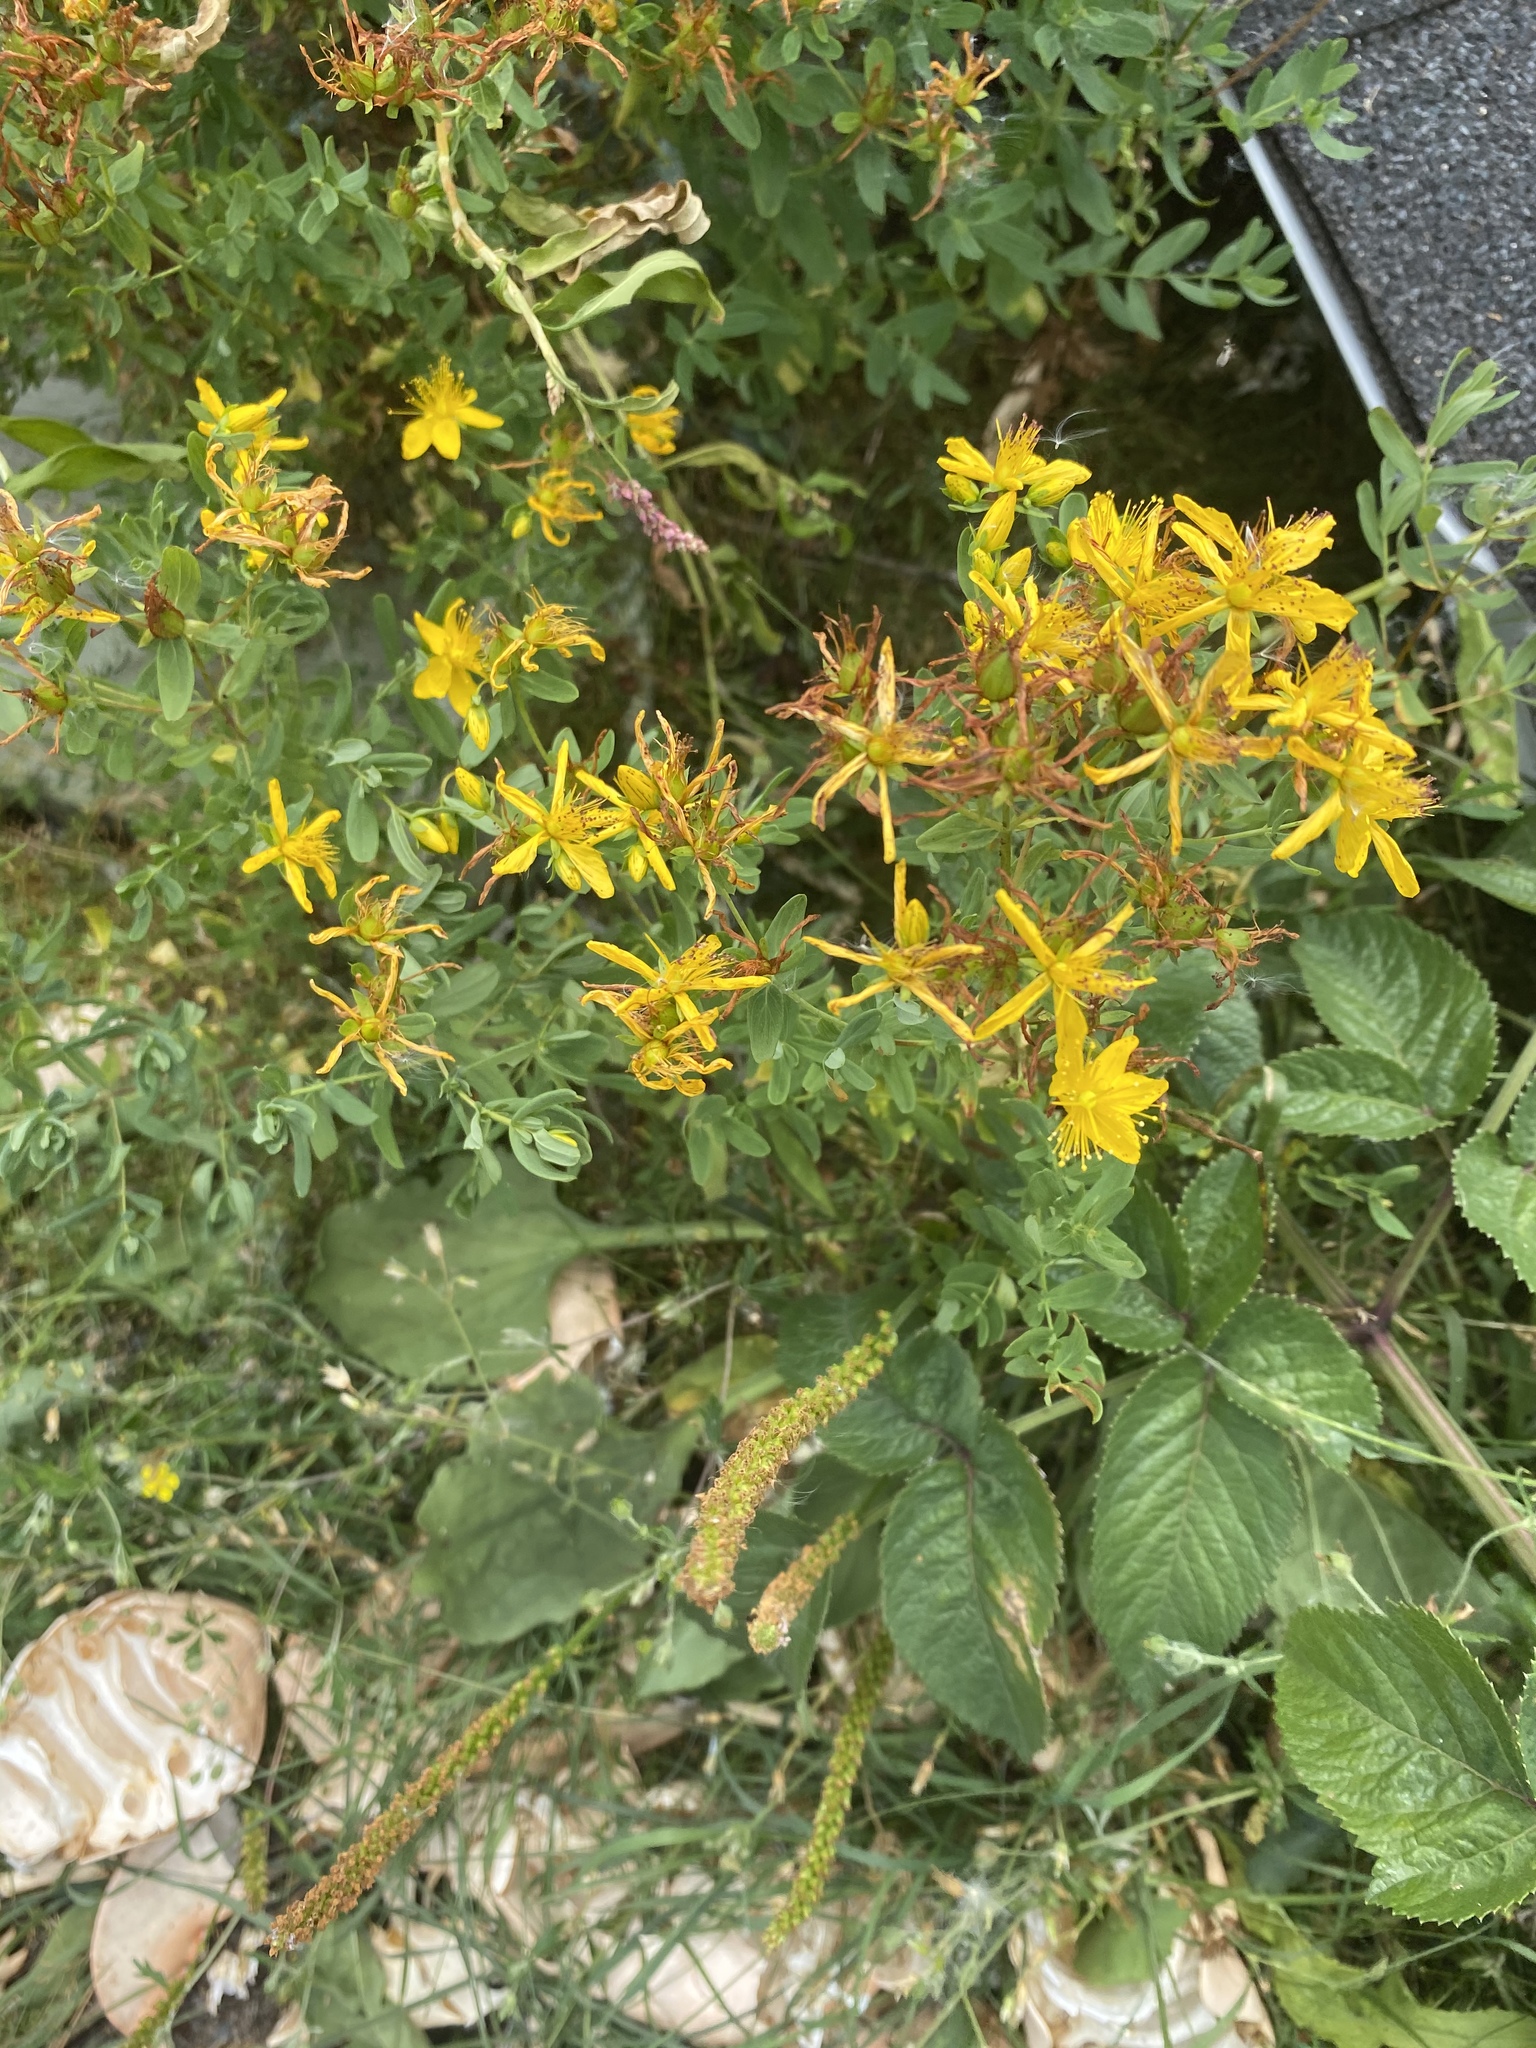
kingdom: Plantae
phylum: Tracheophyta
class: Magnoliopsida
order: Malpighiales
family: Hypericaceae
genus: Hypericum
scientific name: Hypericum perforatum
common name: Common st. johnswort
